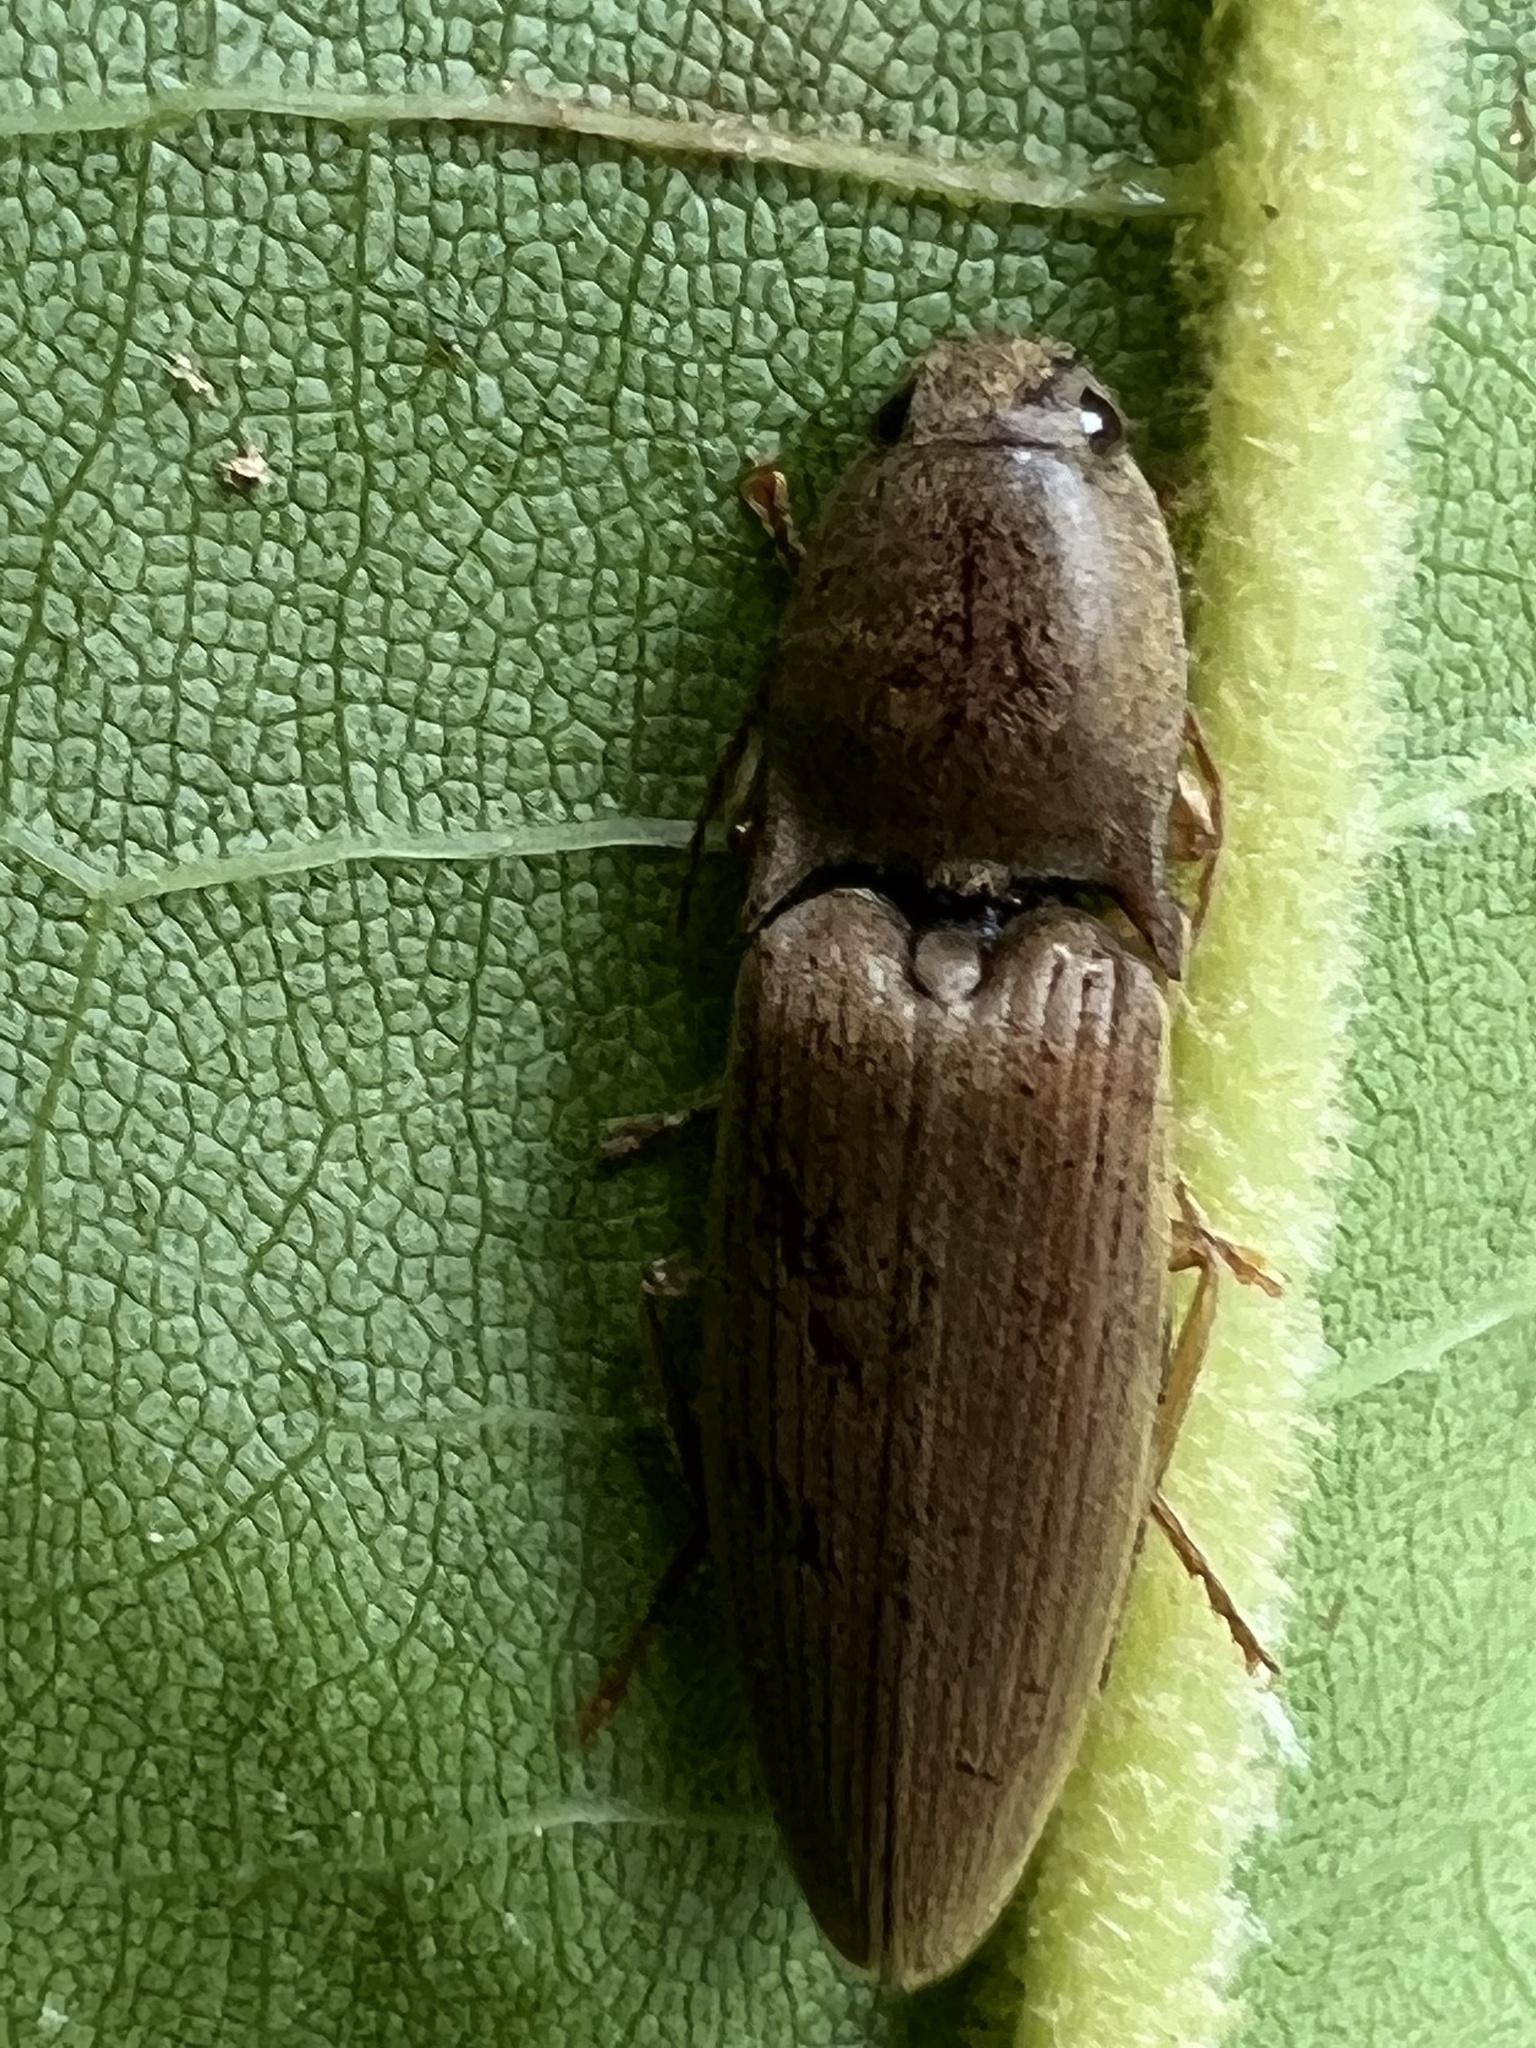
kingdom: Animalia
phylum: Arthropoda
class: Insecta
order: Coleoptera
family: Elateridae
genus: Monocrepidius
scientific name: Monocrepidius lividus
